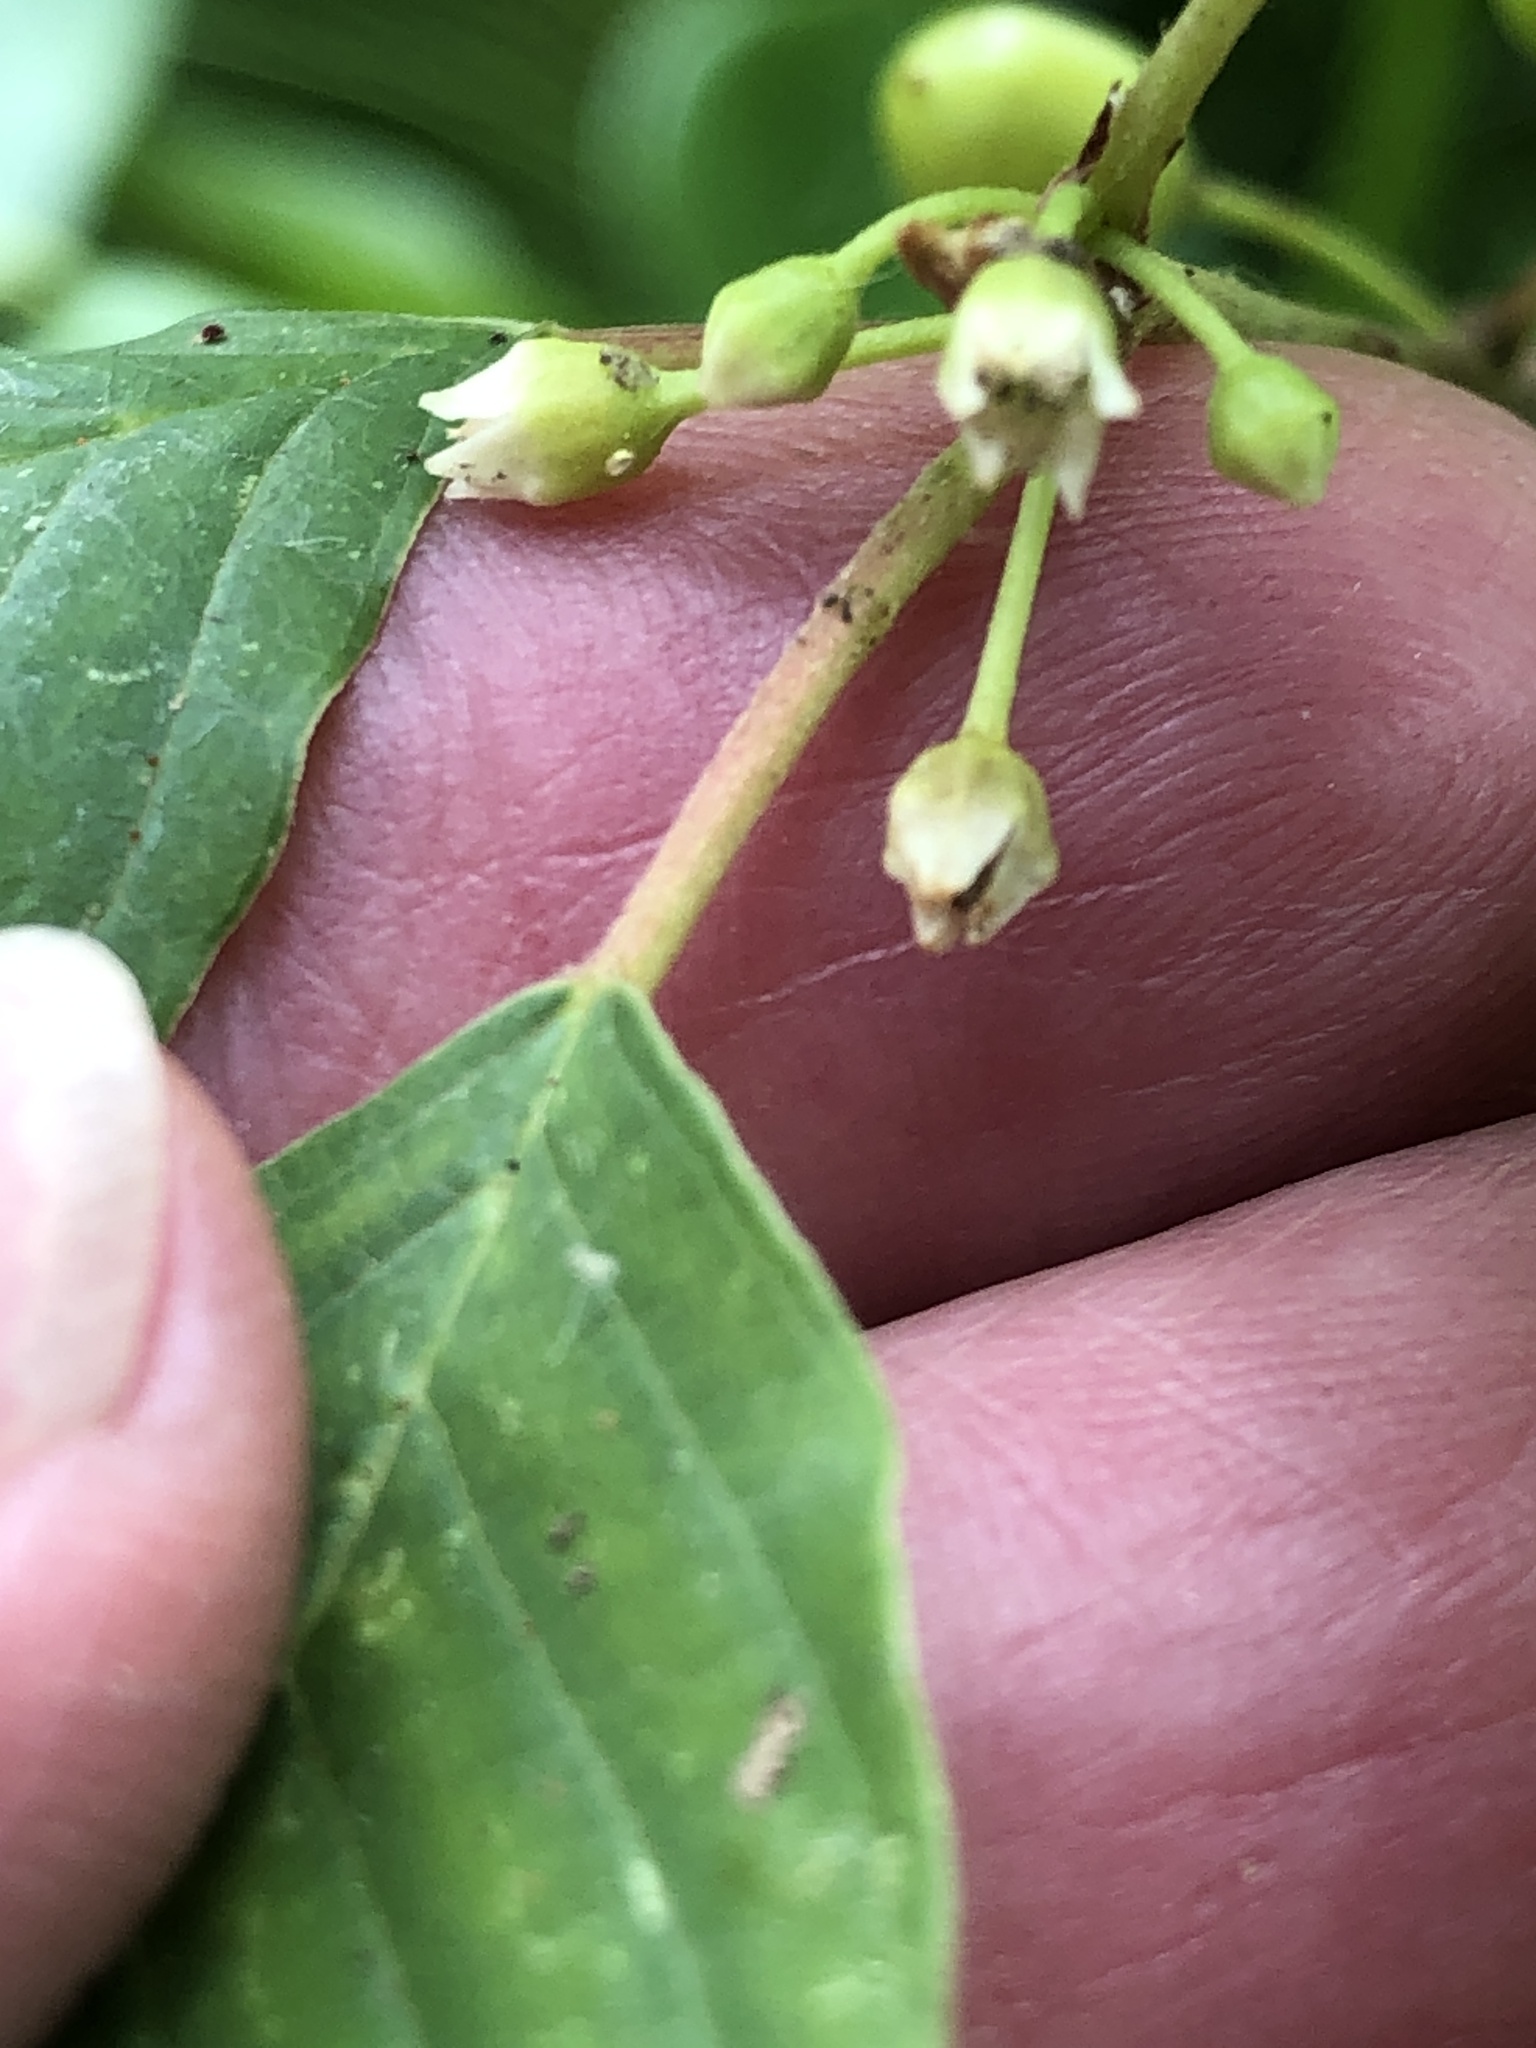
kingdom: Plantae
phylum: Tracheophyta
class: Magnoliopsida
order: Rosales
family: Rhamnaceae
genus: Frangula
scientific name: Frangula alnus
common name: Alder buckthorn
